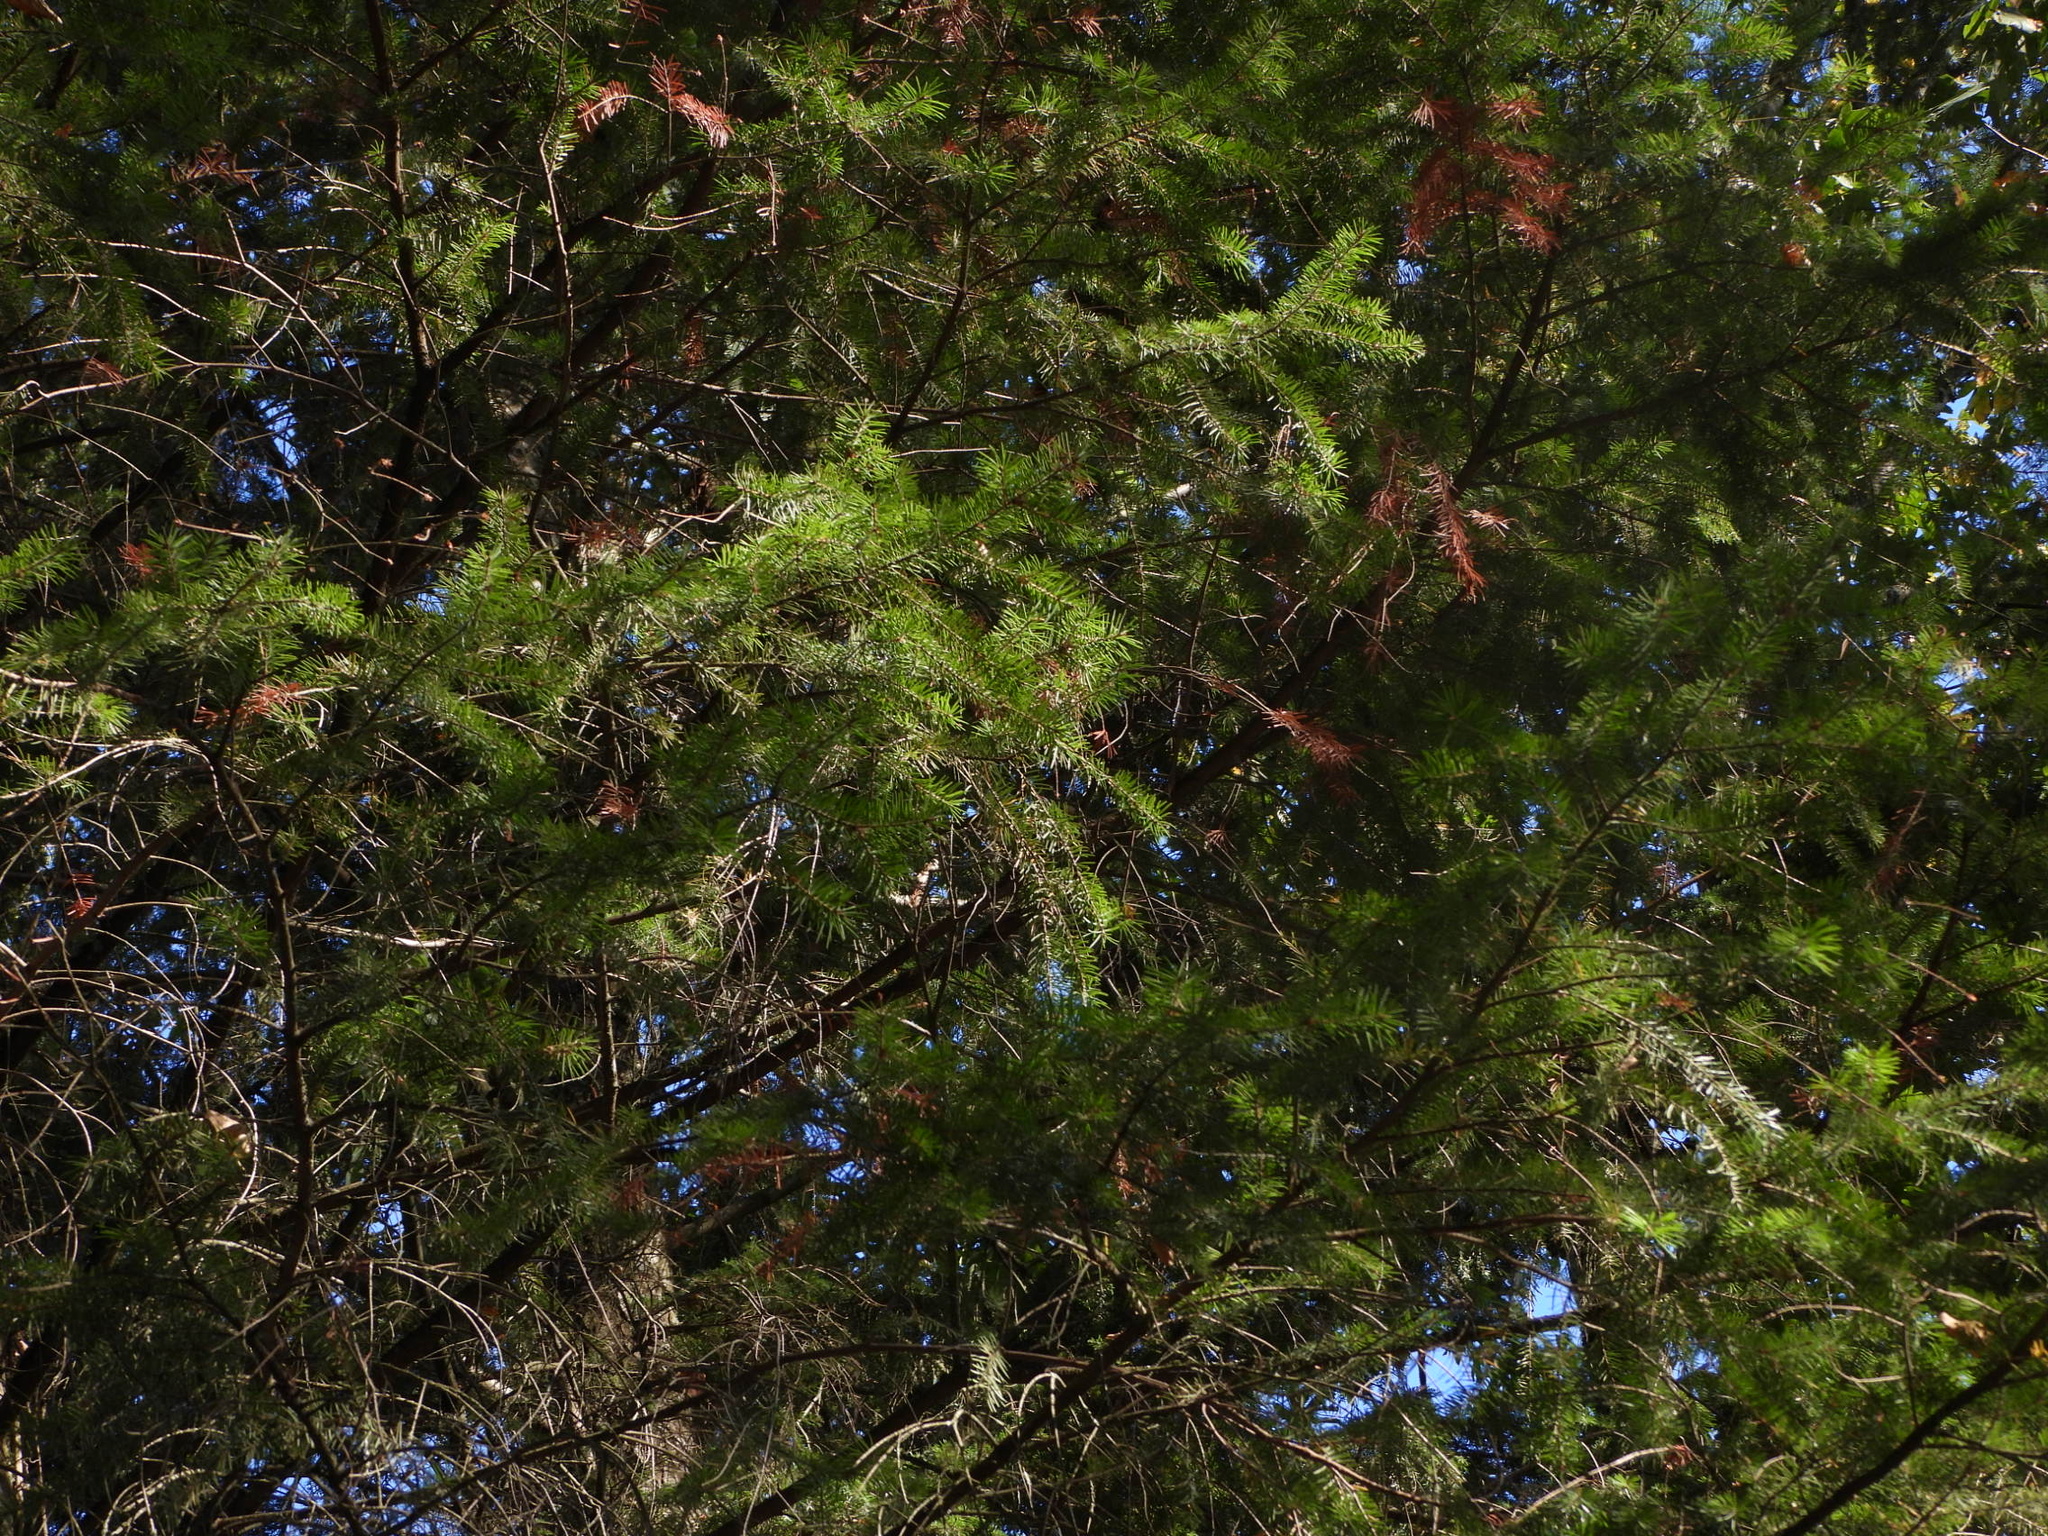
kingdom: Plantae
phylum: Tracheophyta
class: Pinopsida
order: Pinales
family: Pinaceae
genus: Pseudotsuga
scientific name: Pseudotsuga menziesii
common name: Douglas fir
